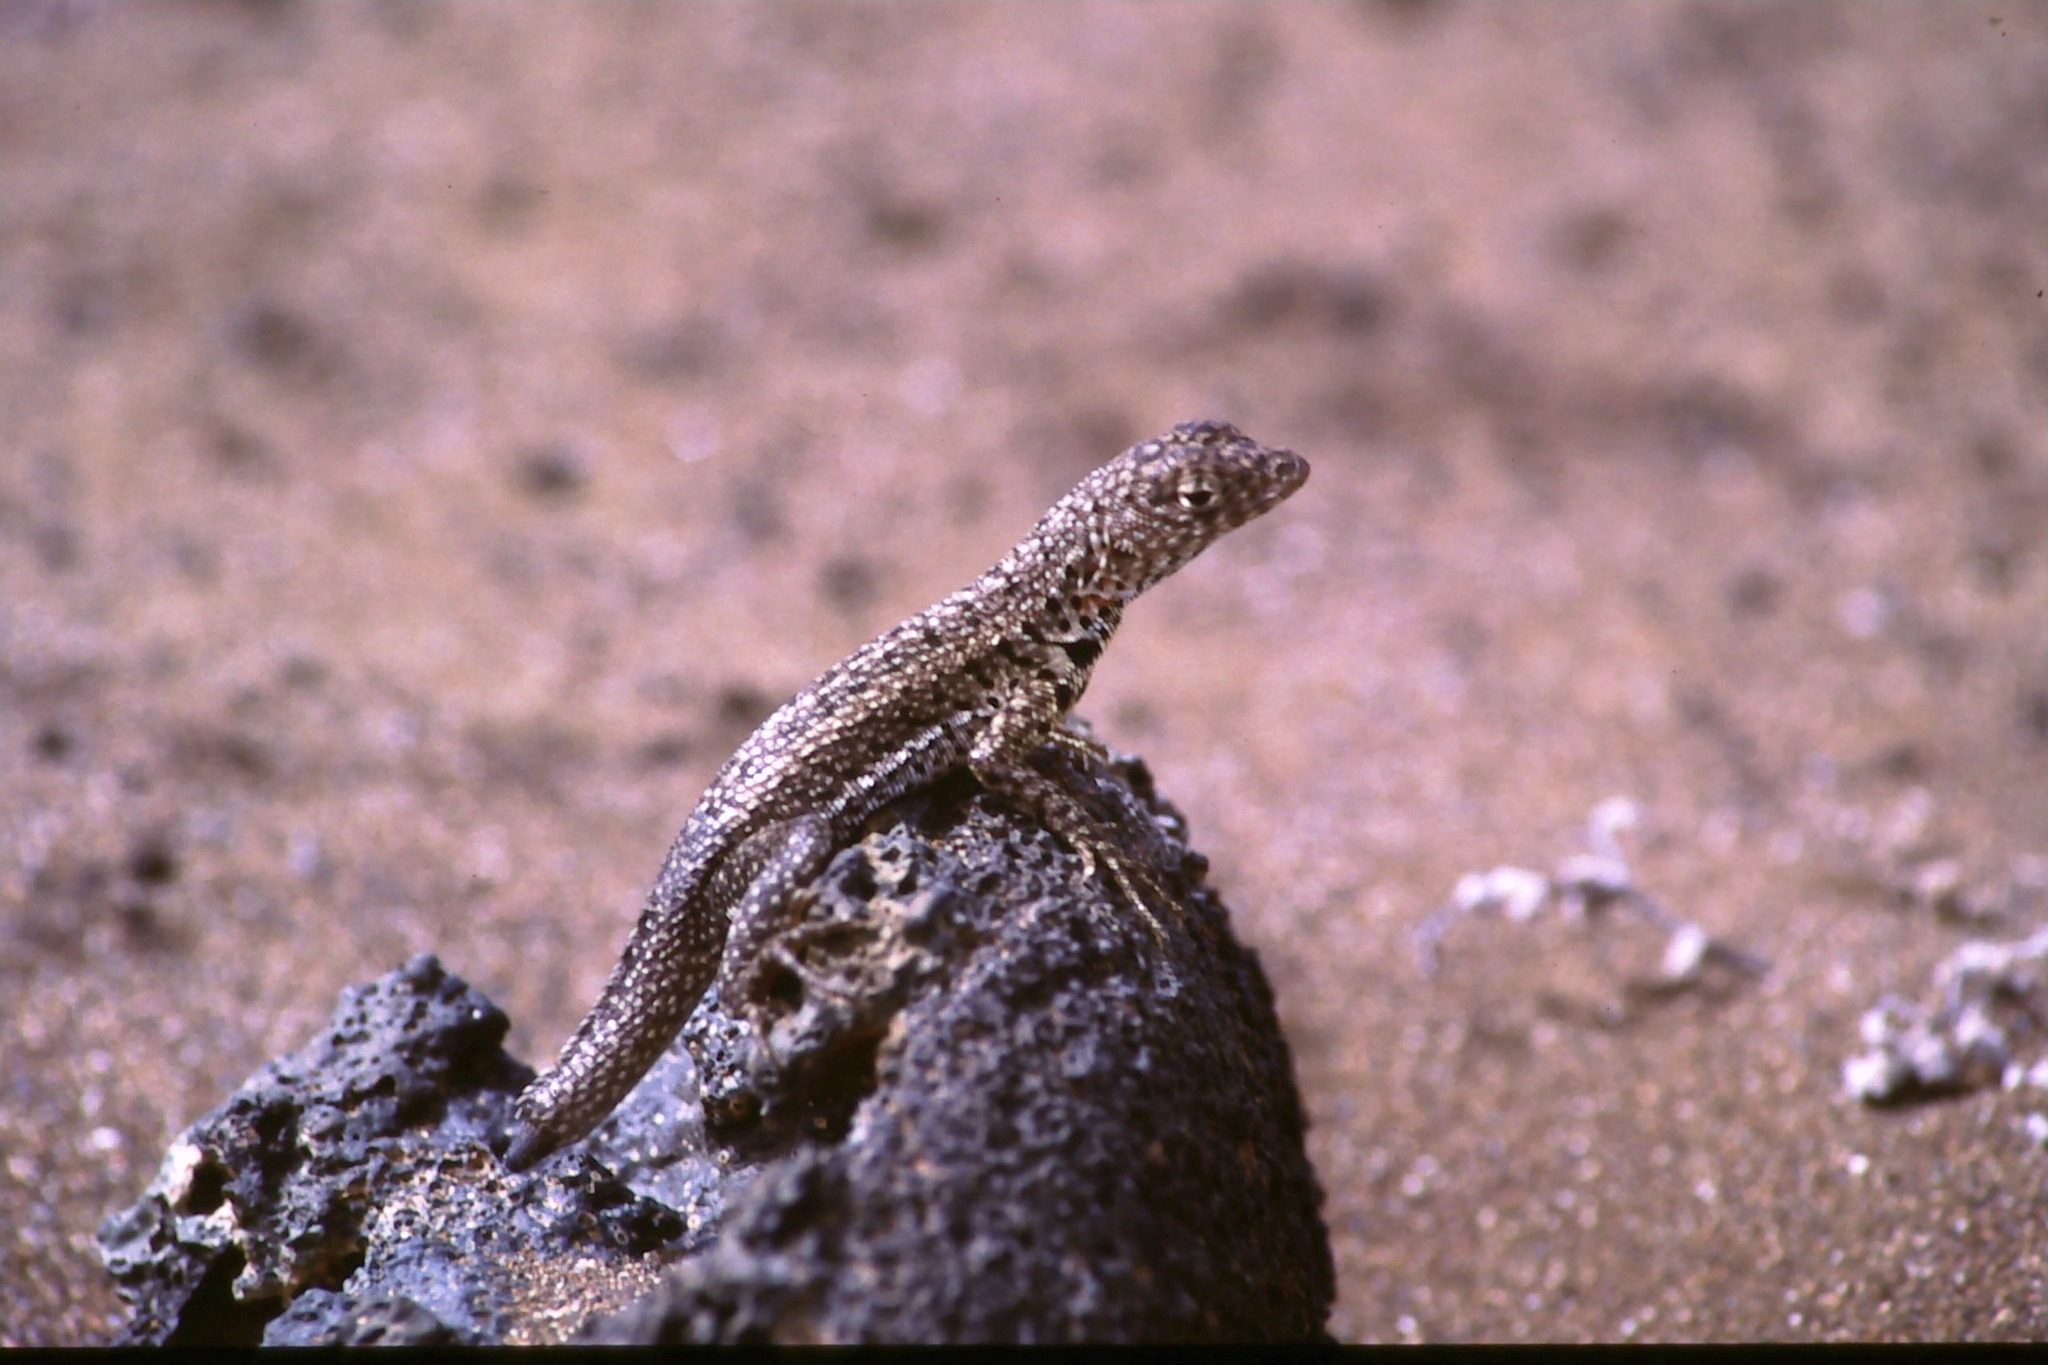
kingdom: Animalia
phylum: Chordata
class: Squamata
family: Tropiduridae
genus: Microlophus
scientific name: Microlophus jacobii
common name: Santiago lava lizard
